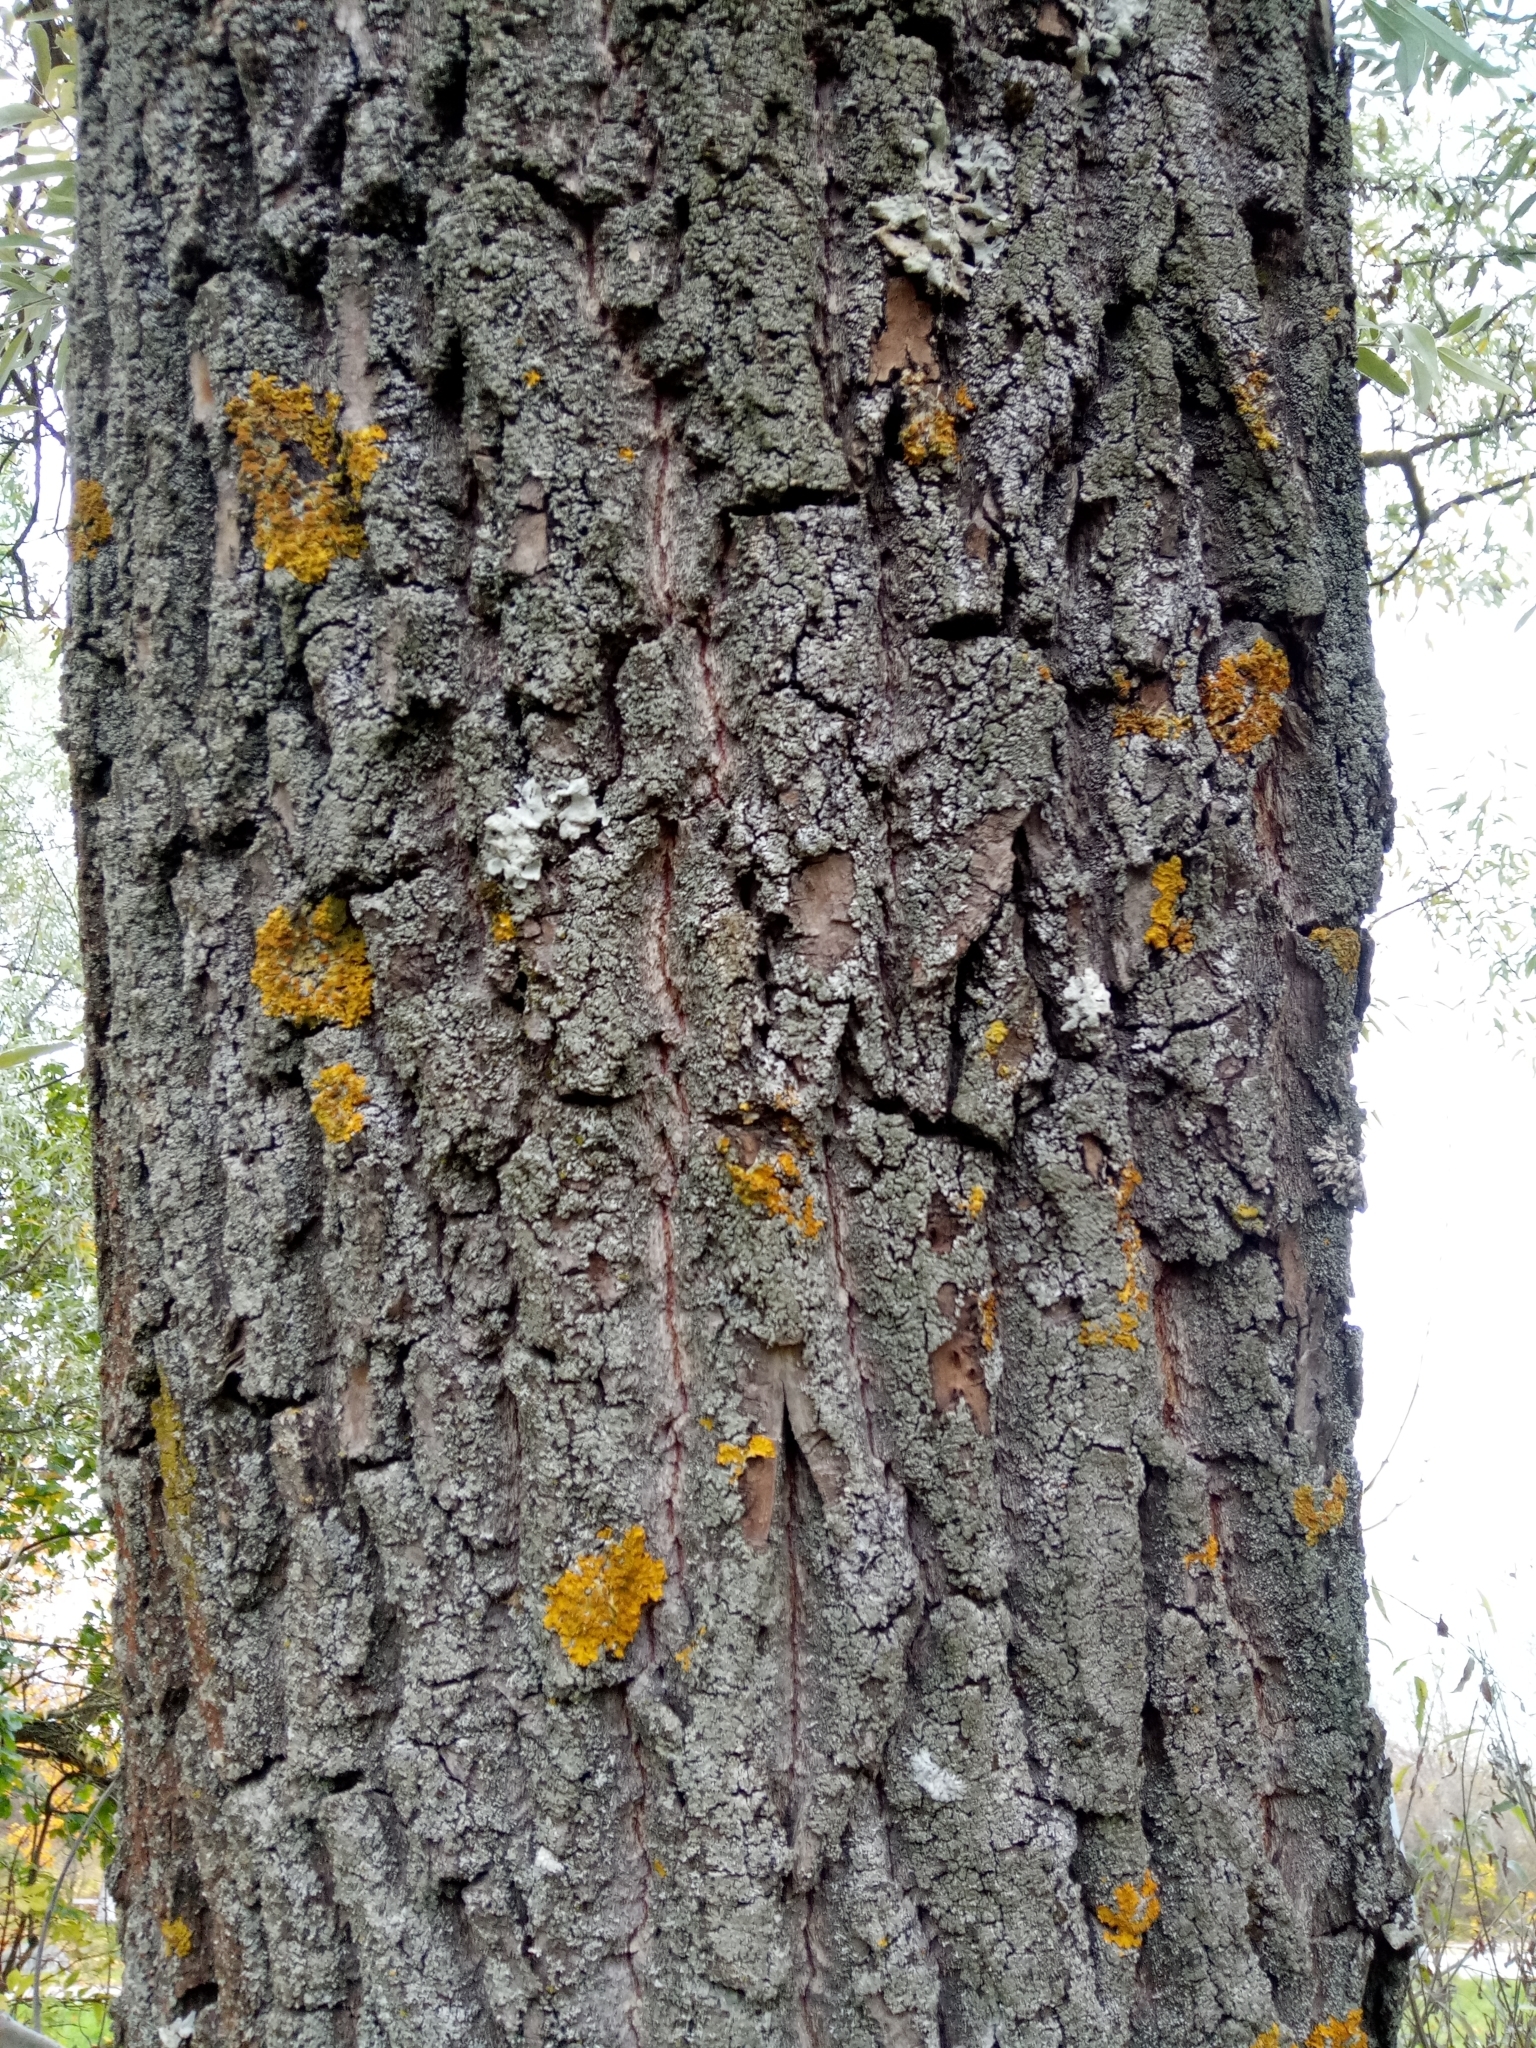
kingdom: Plantae
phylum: Tracheophyta
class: Magnoliopsida
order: Malpighiales
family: Salicaceae
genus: Salix
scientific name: Salix alba
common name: White willow
